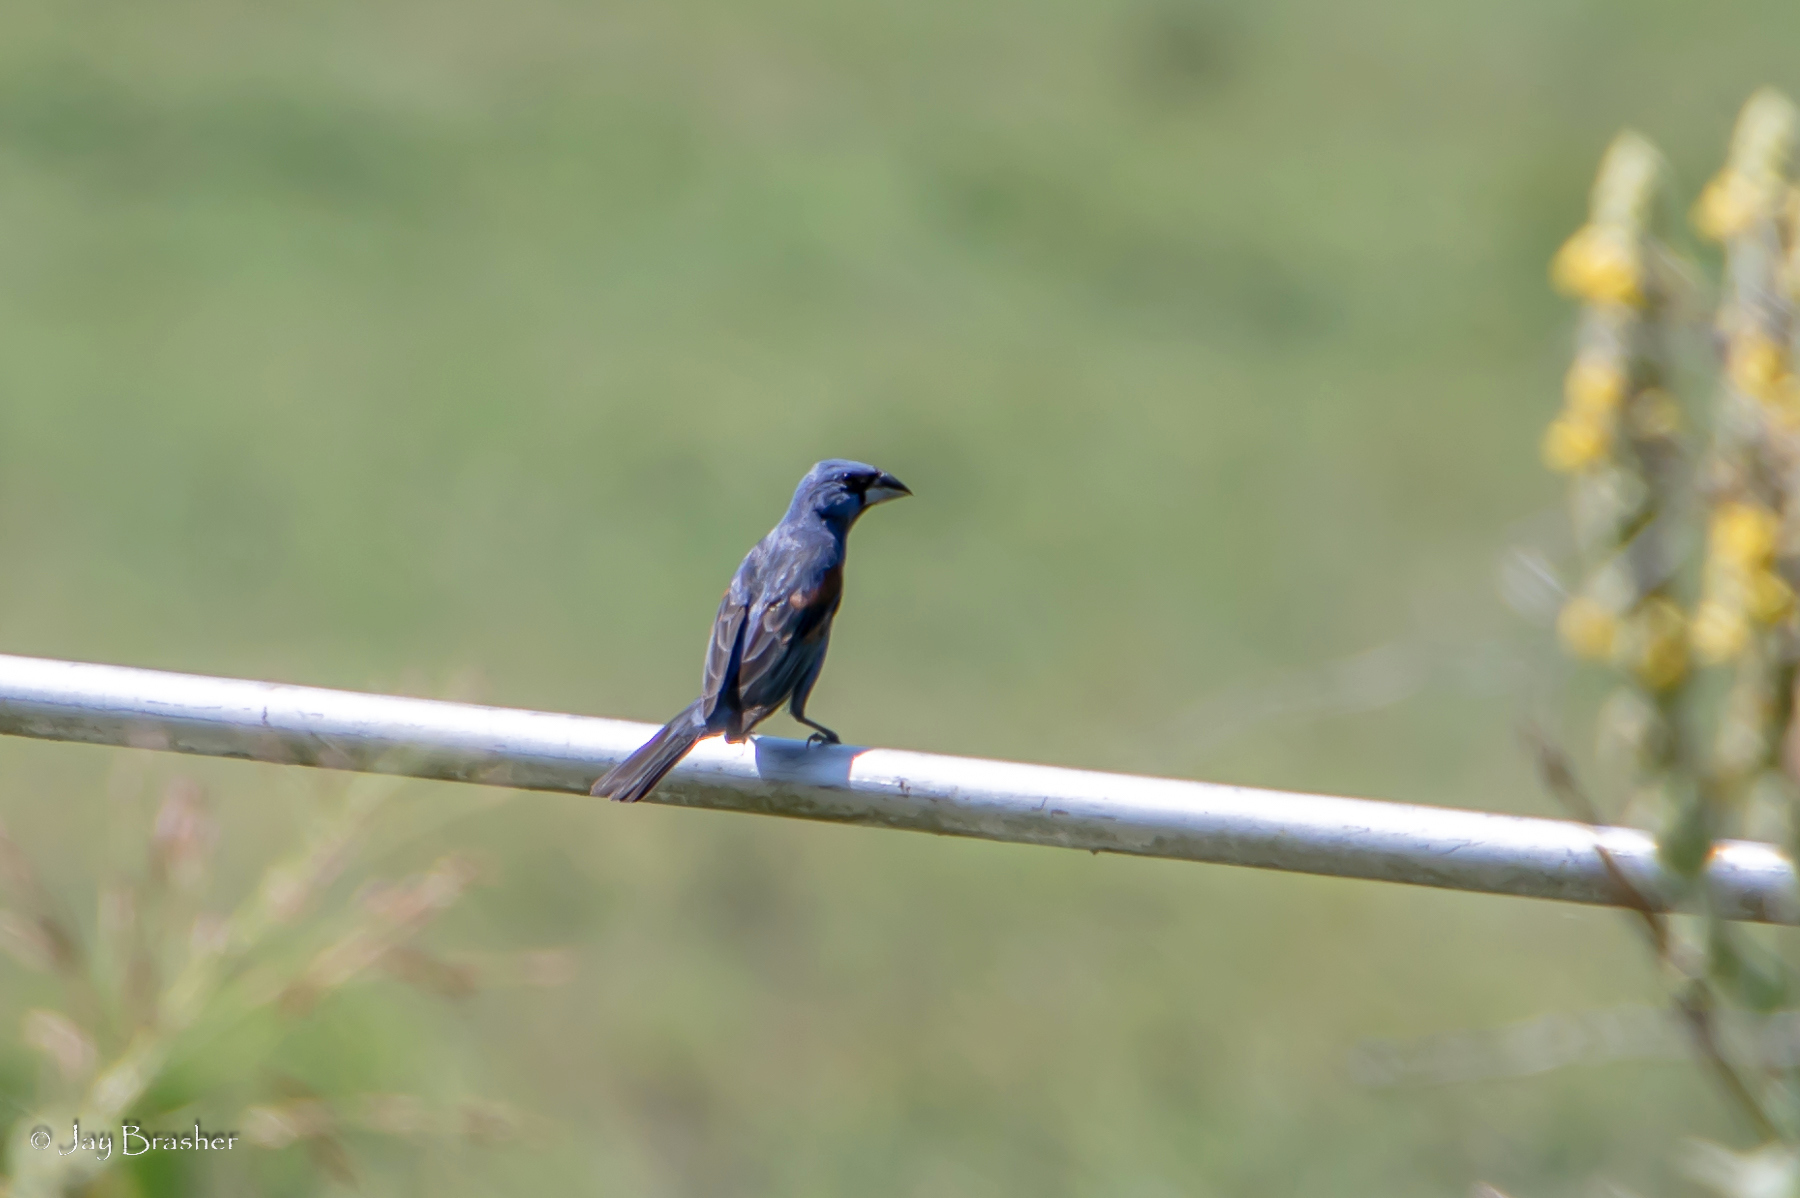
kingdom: Animalia
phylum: Chordata
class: Aves
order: Passeriformes
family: Cardinalidae
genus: Passerina
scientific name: Passerina caerulea
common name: Blue grosbeak
